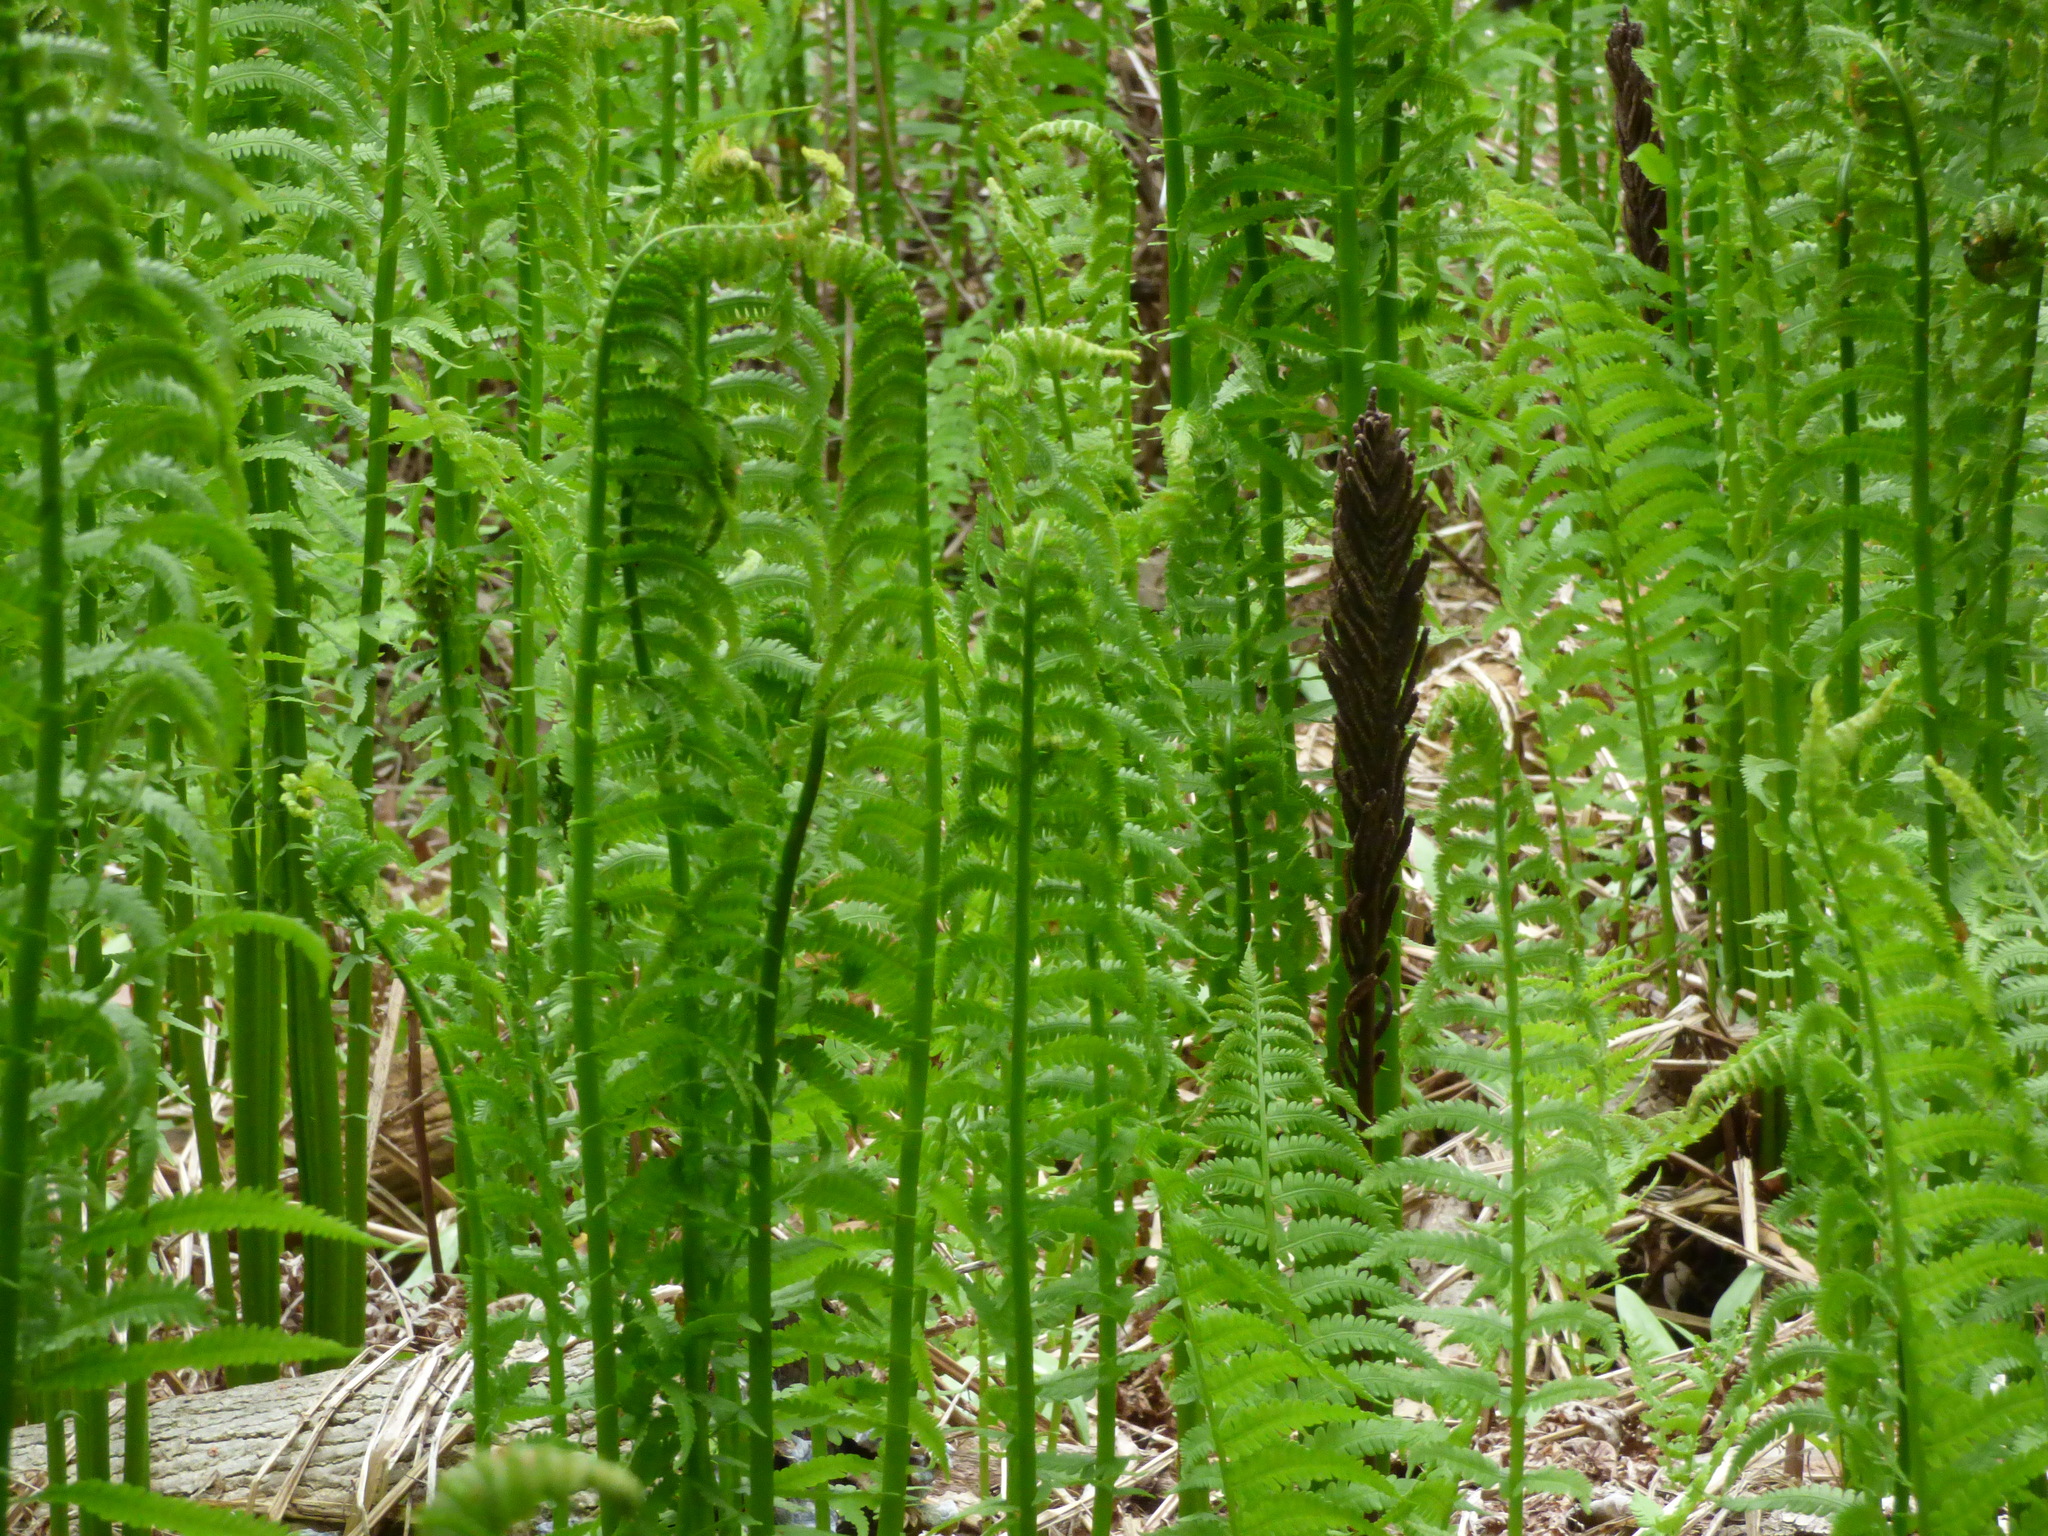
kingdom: Plantae
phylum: Tracheophyta
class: Polypodiopsida
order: Polypodiales
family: Onocleaceae
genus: Matteuccia
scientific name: Matteuccia struthiopteris
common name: Ostrich fern
